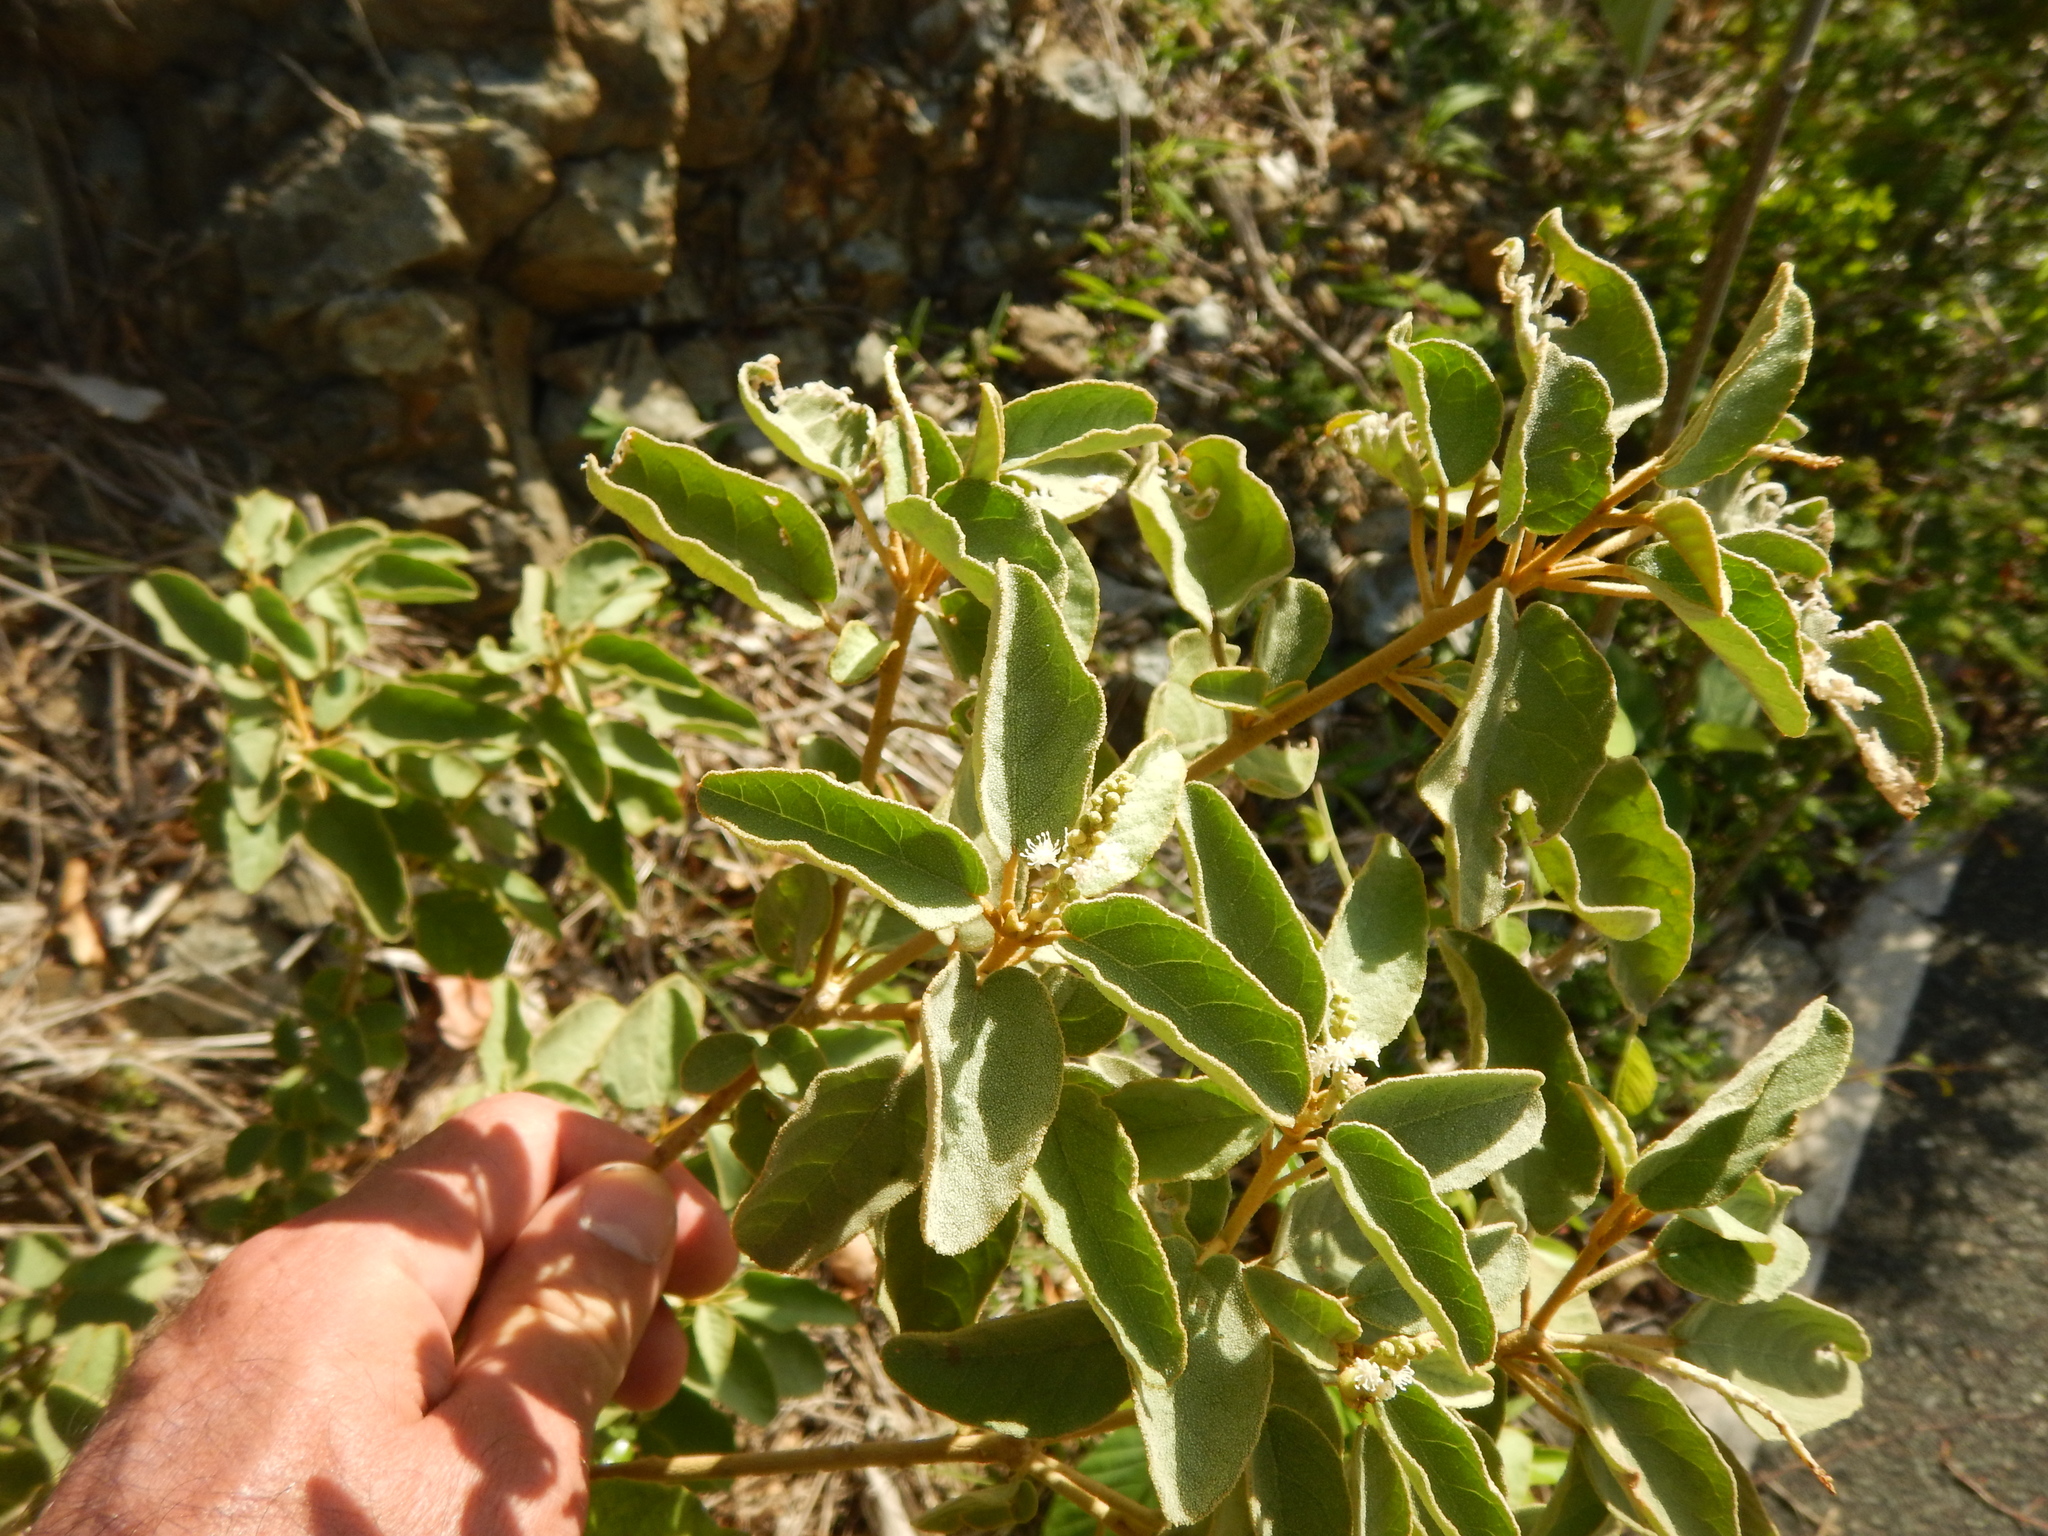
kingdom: Plantae
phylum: Tracheophyta
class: Magnoliopsida
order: Malpighiales
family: Euphorbiaceae
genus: Croton
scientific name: Croton flavens
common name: Yellow balsam
